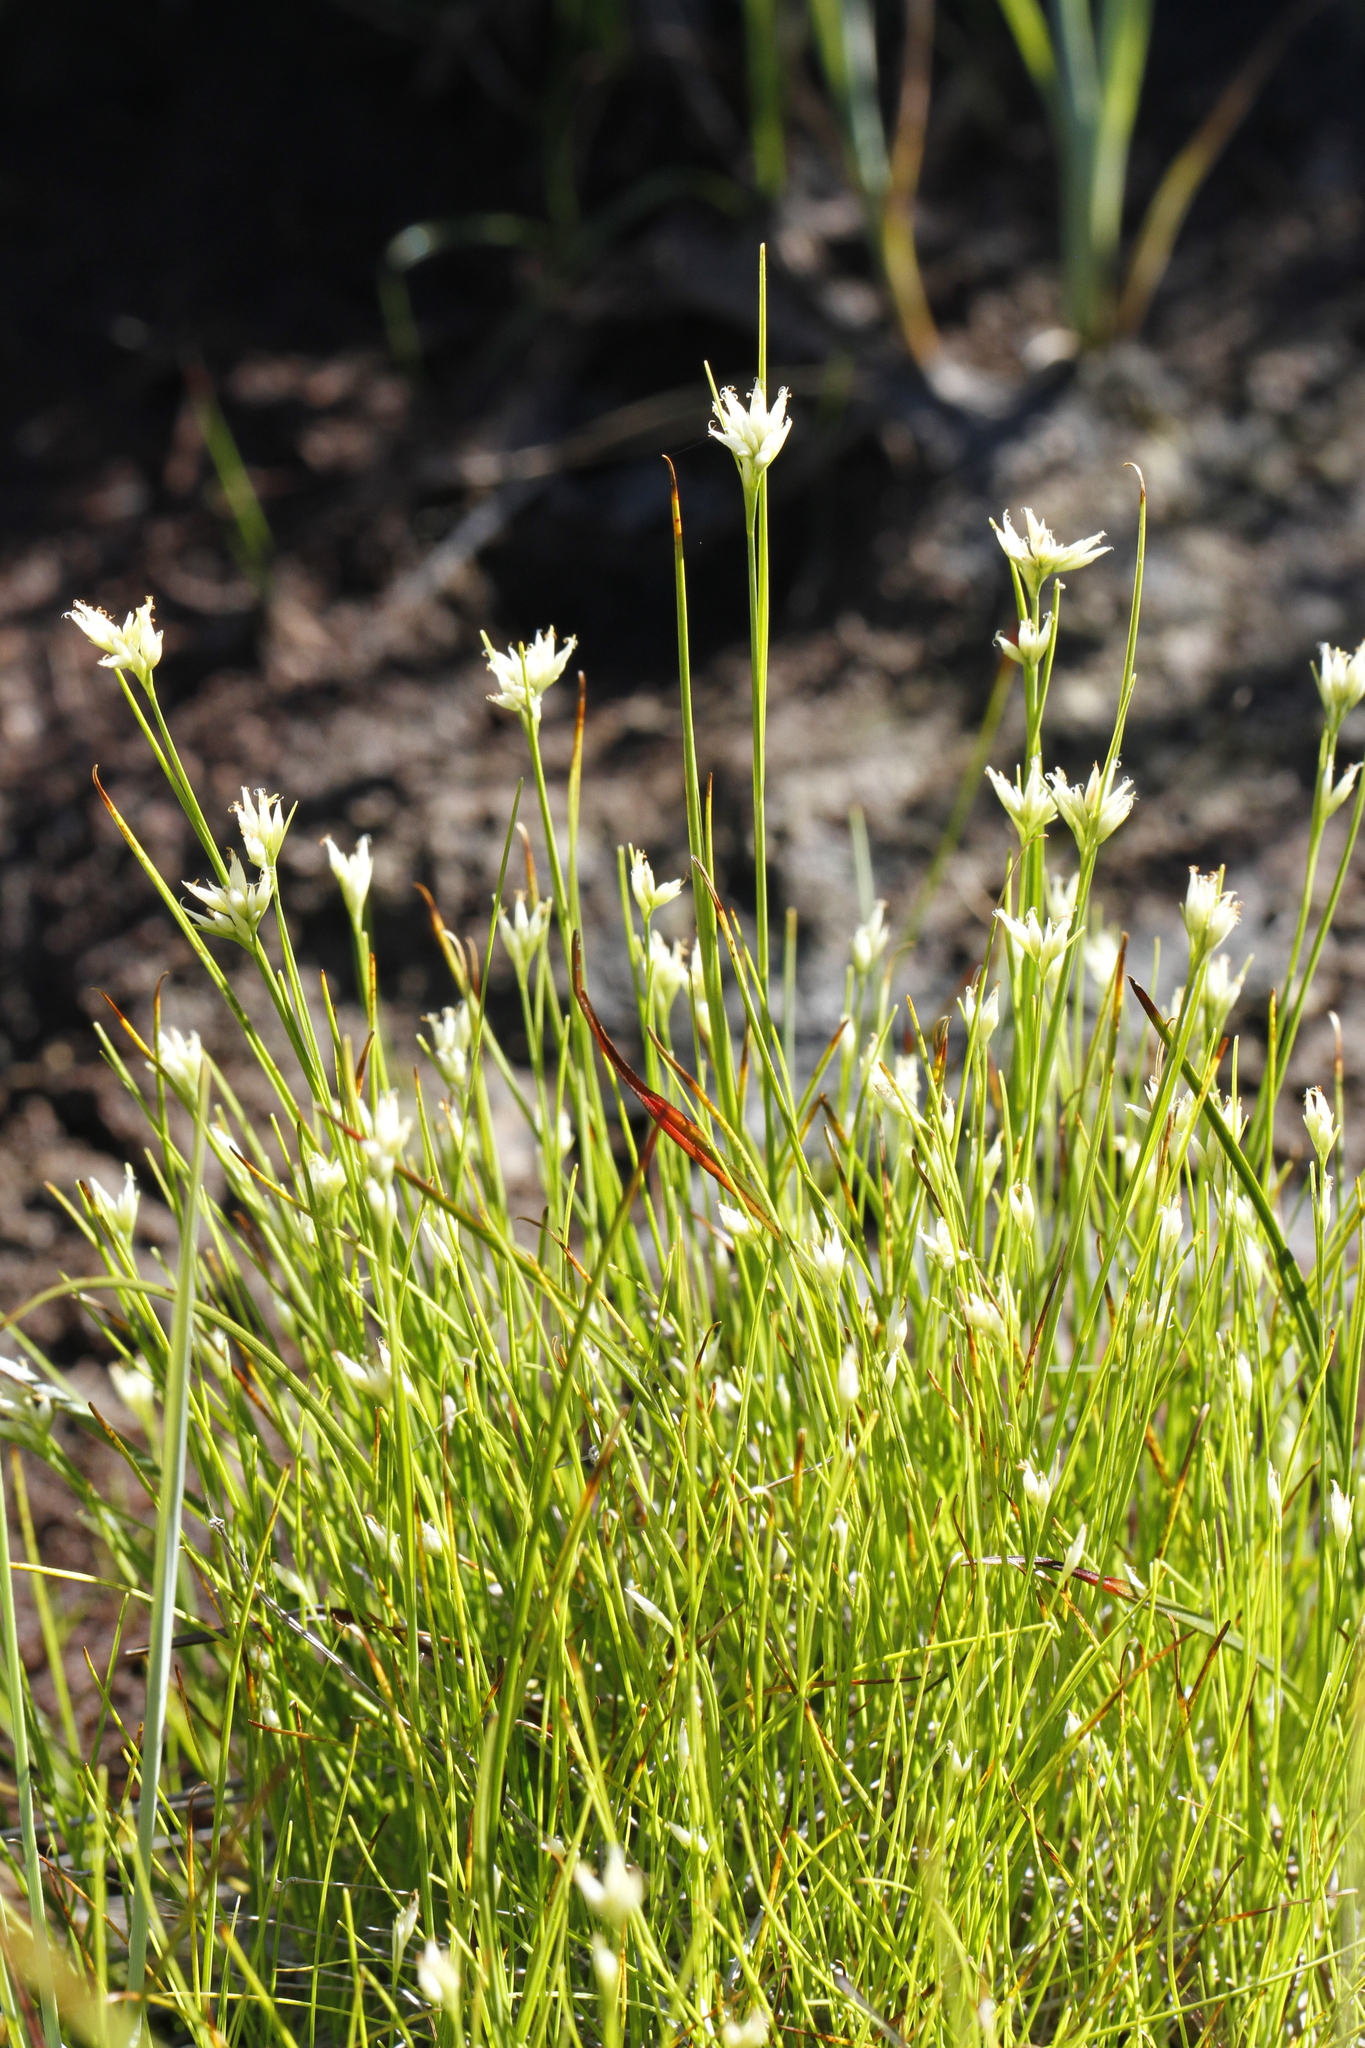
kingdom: Plantae
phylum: Tracheophyta
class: Liliopsida
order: Poales
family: Cyperaceae
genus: Rhynchospora
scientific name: Rhynchospora alba
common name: White beak-sedge
